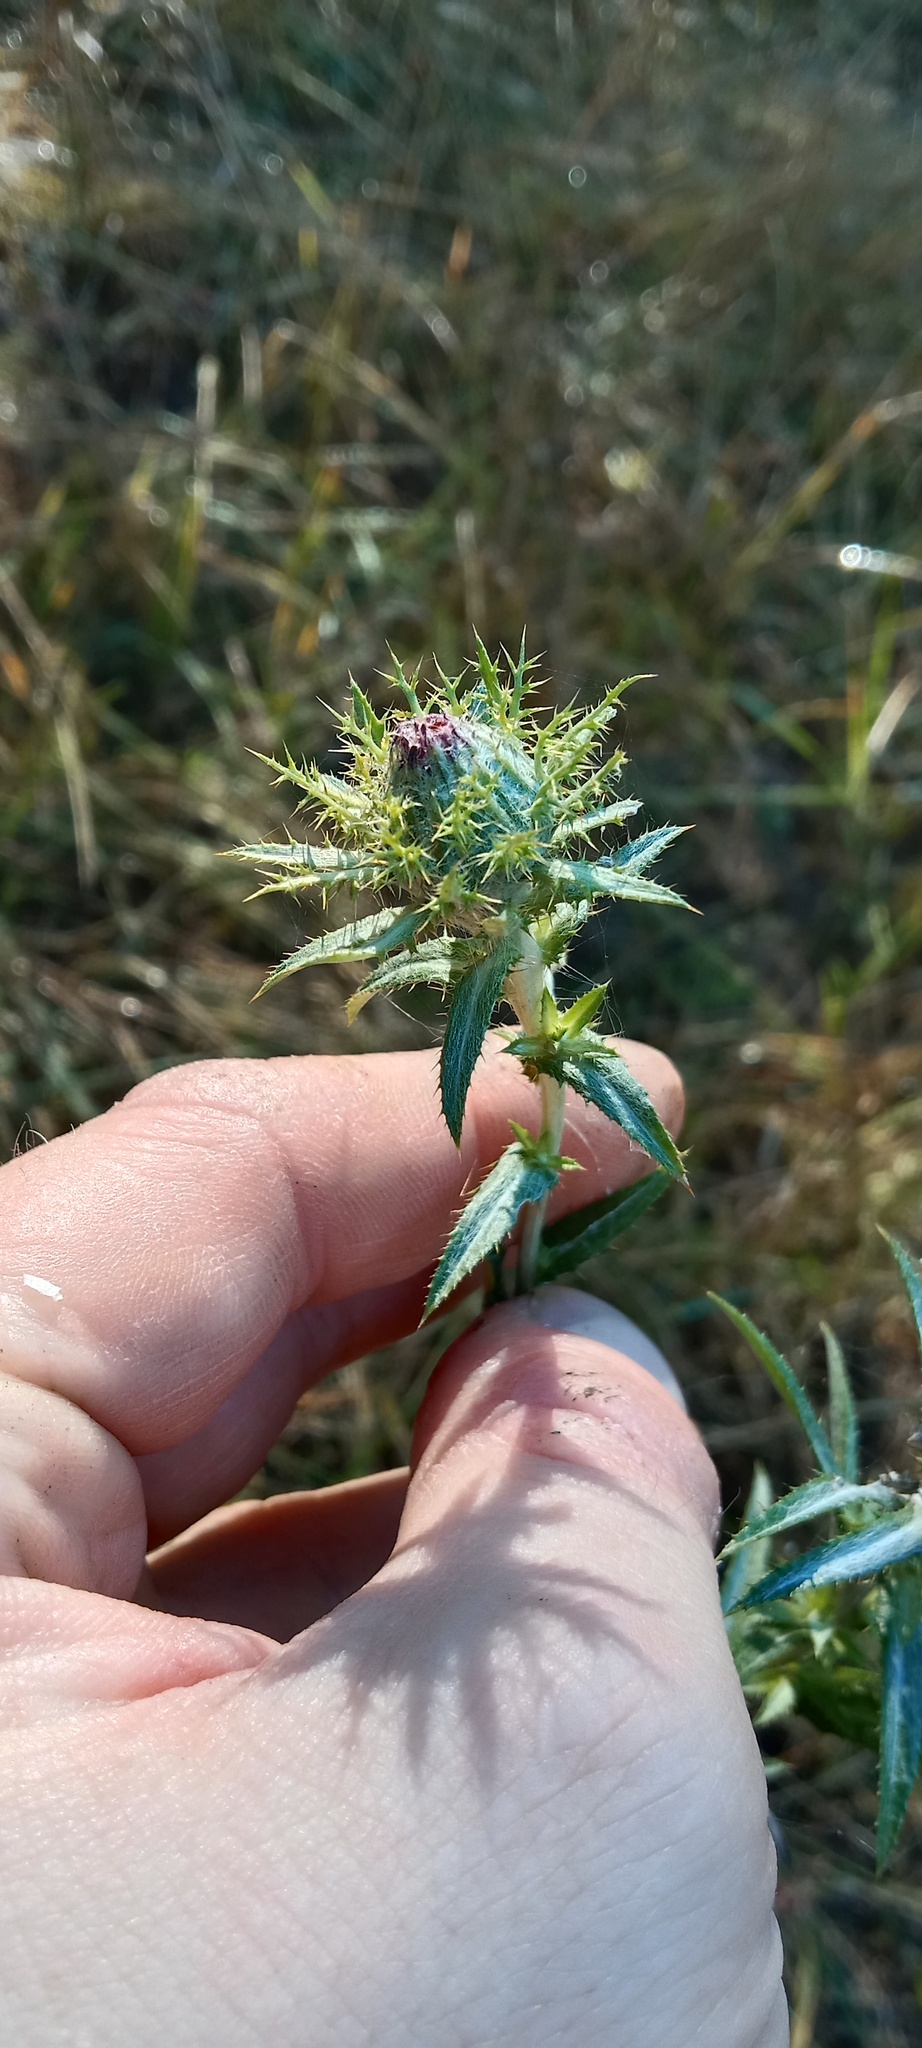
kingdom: Plantae
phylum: Tracheophyta
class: Magnoliopsida
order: Asterales
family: Asteraceae
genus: Carlina
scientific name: Carlina biebersteinii
